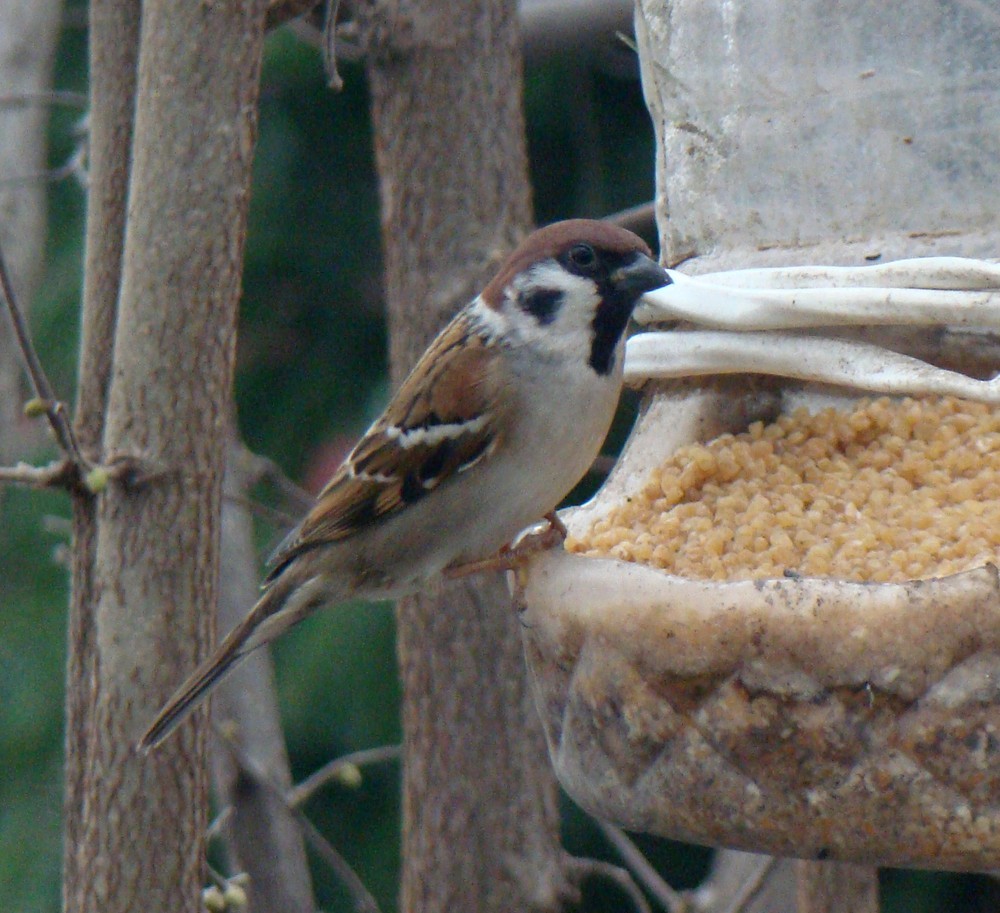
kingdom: Animalia
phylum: Chordata
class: Aves
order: Passeriformes
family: Passeridae
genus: Passer
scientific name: Passer montanus
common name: Eurasian tree sparrow
